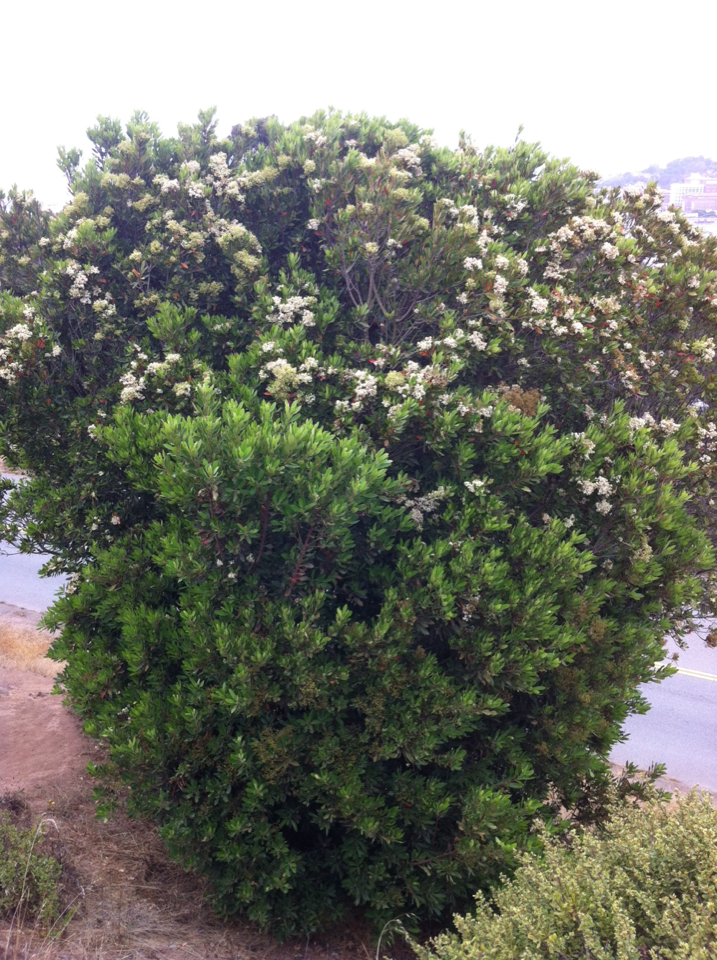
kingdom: Plantae
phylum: Tracheophyta
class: Magnoliopsida
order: Rosales
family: Rosaceae
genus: Heteromeles
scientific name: Heteromeles arbutifolia
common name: California-holly
